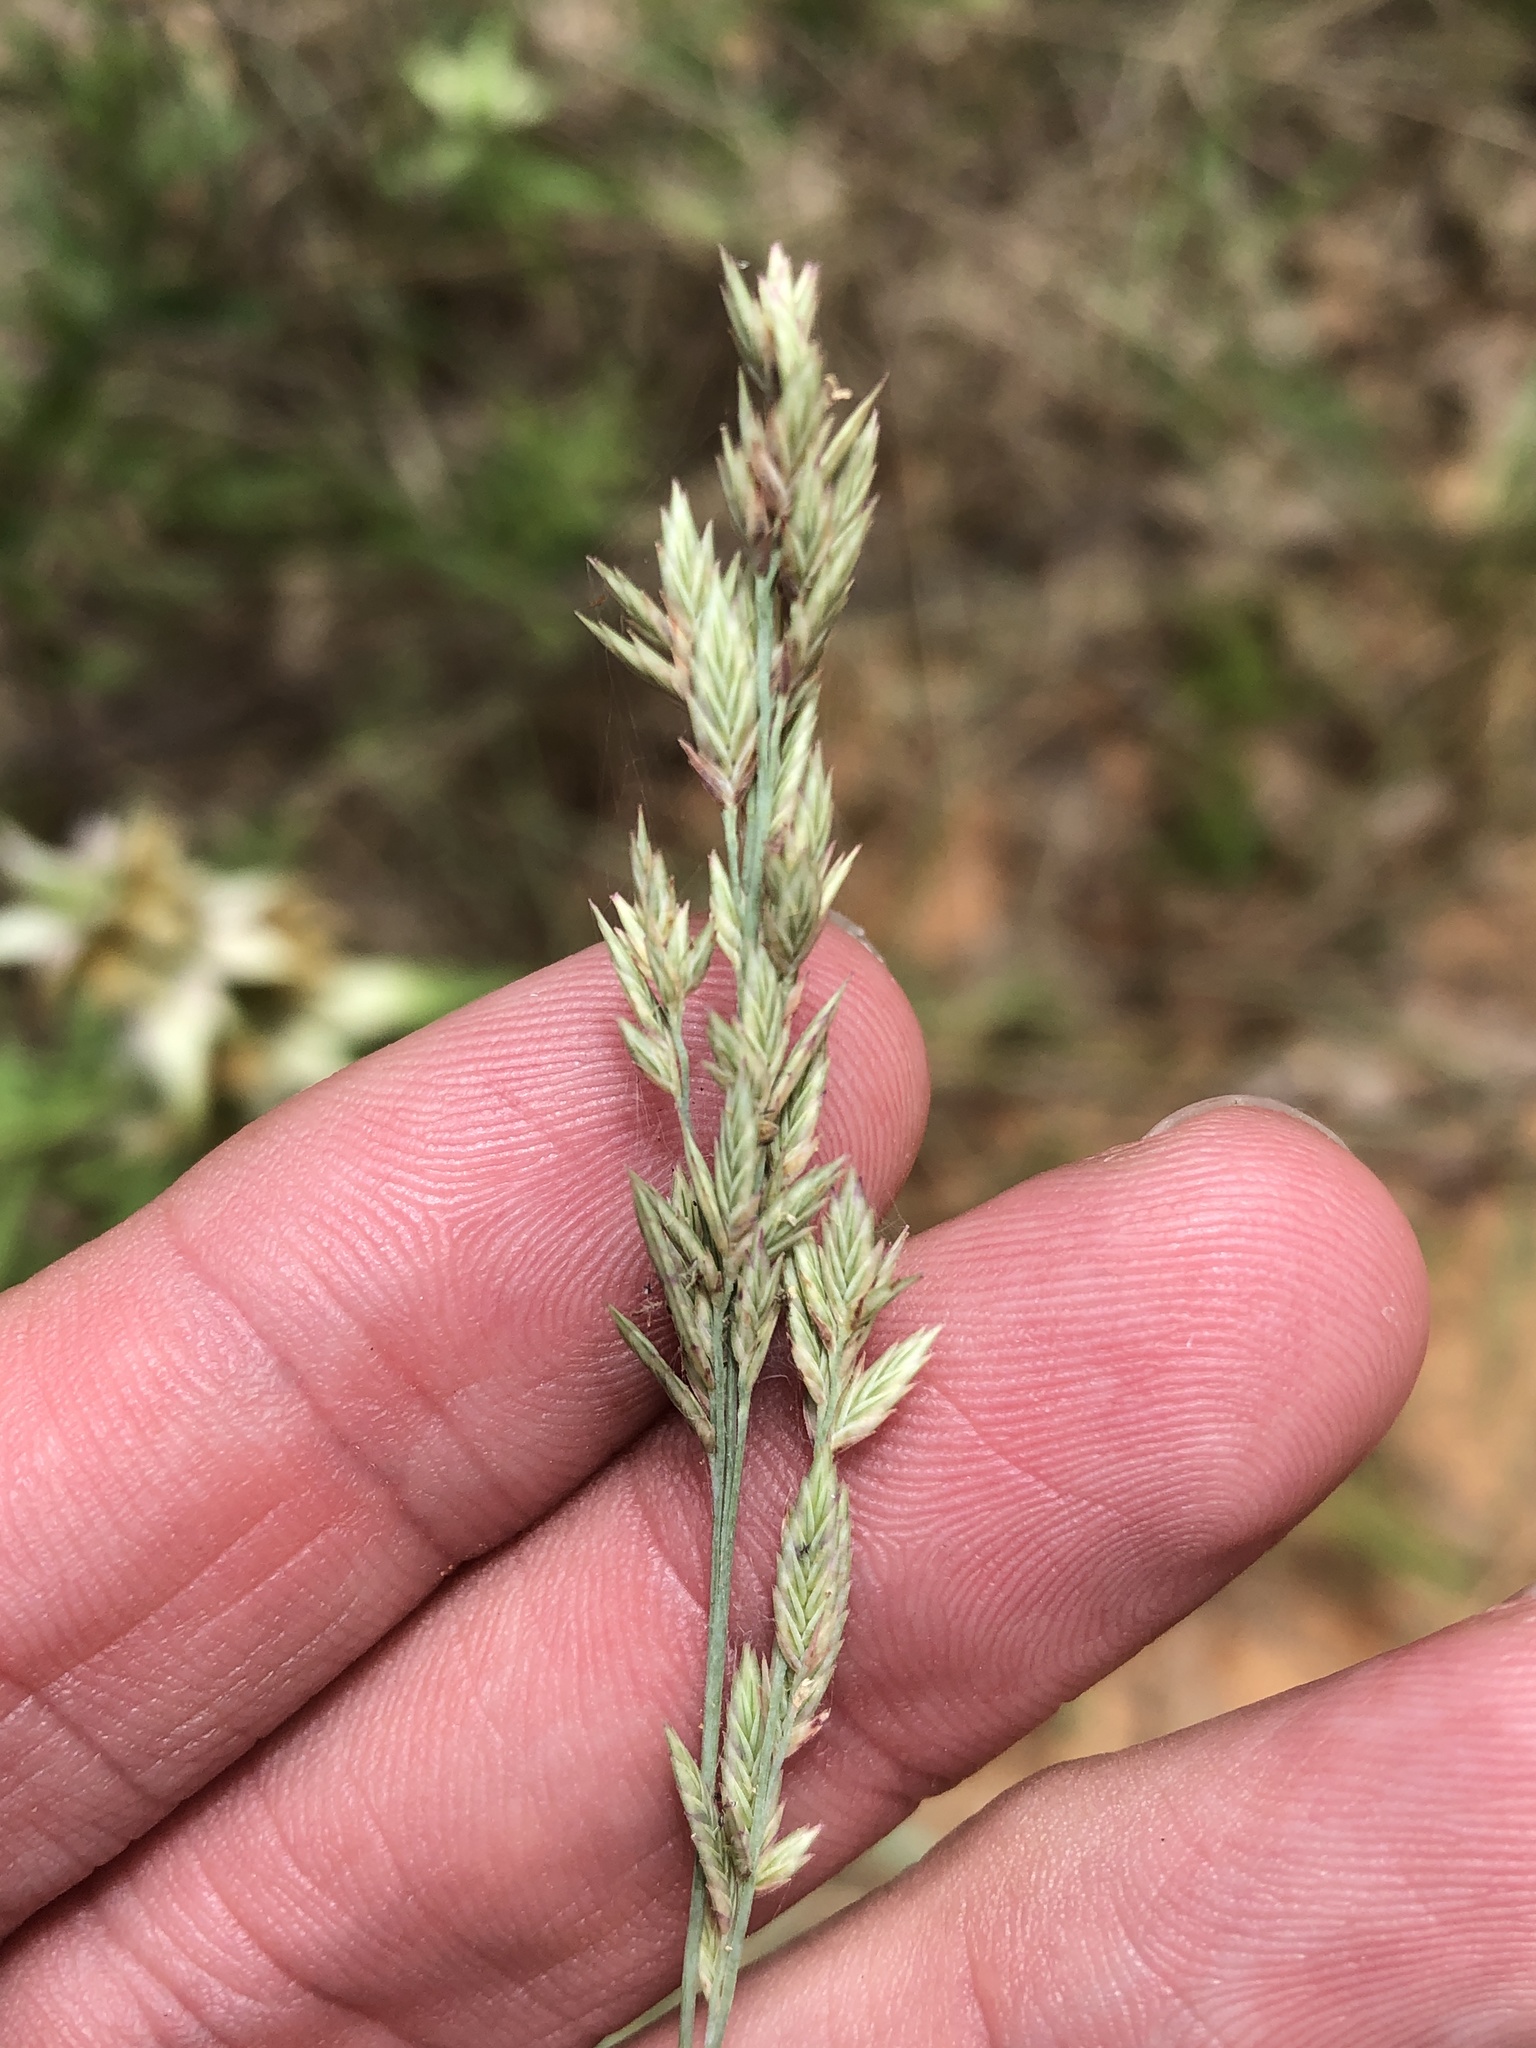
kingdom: Plantae
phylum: Tracheophyta
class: Liliopsida
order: Poales
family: Poaceae
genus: Eragrostis
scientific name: Eragrostis secundiflora
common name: Red love grass
